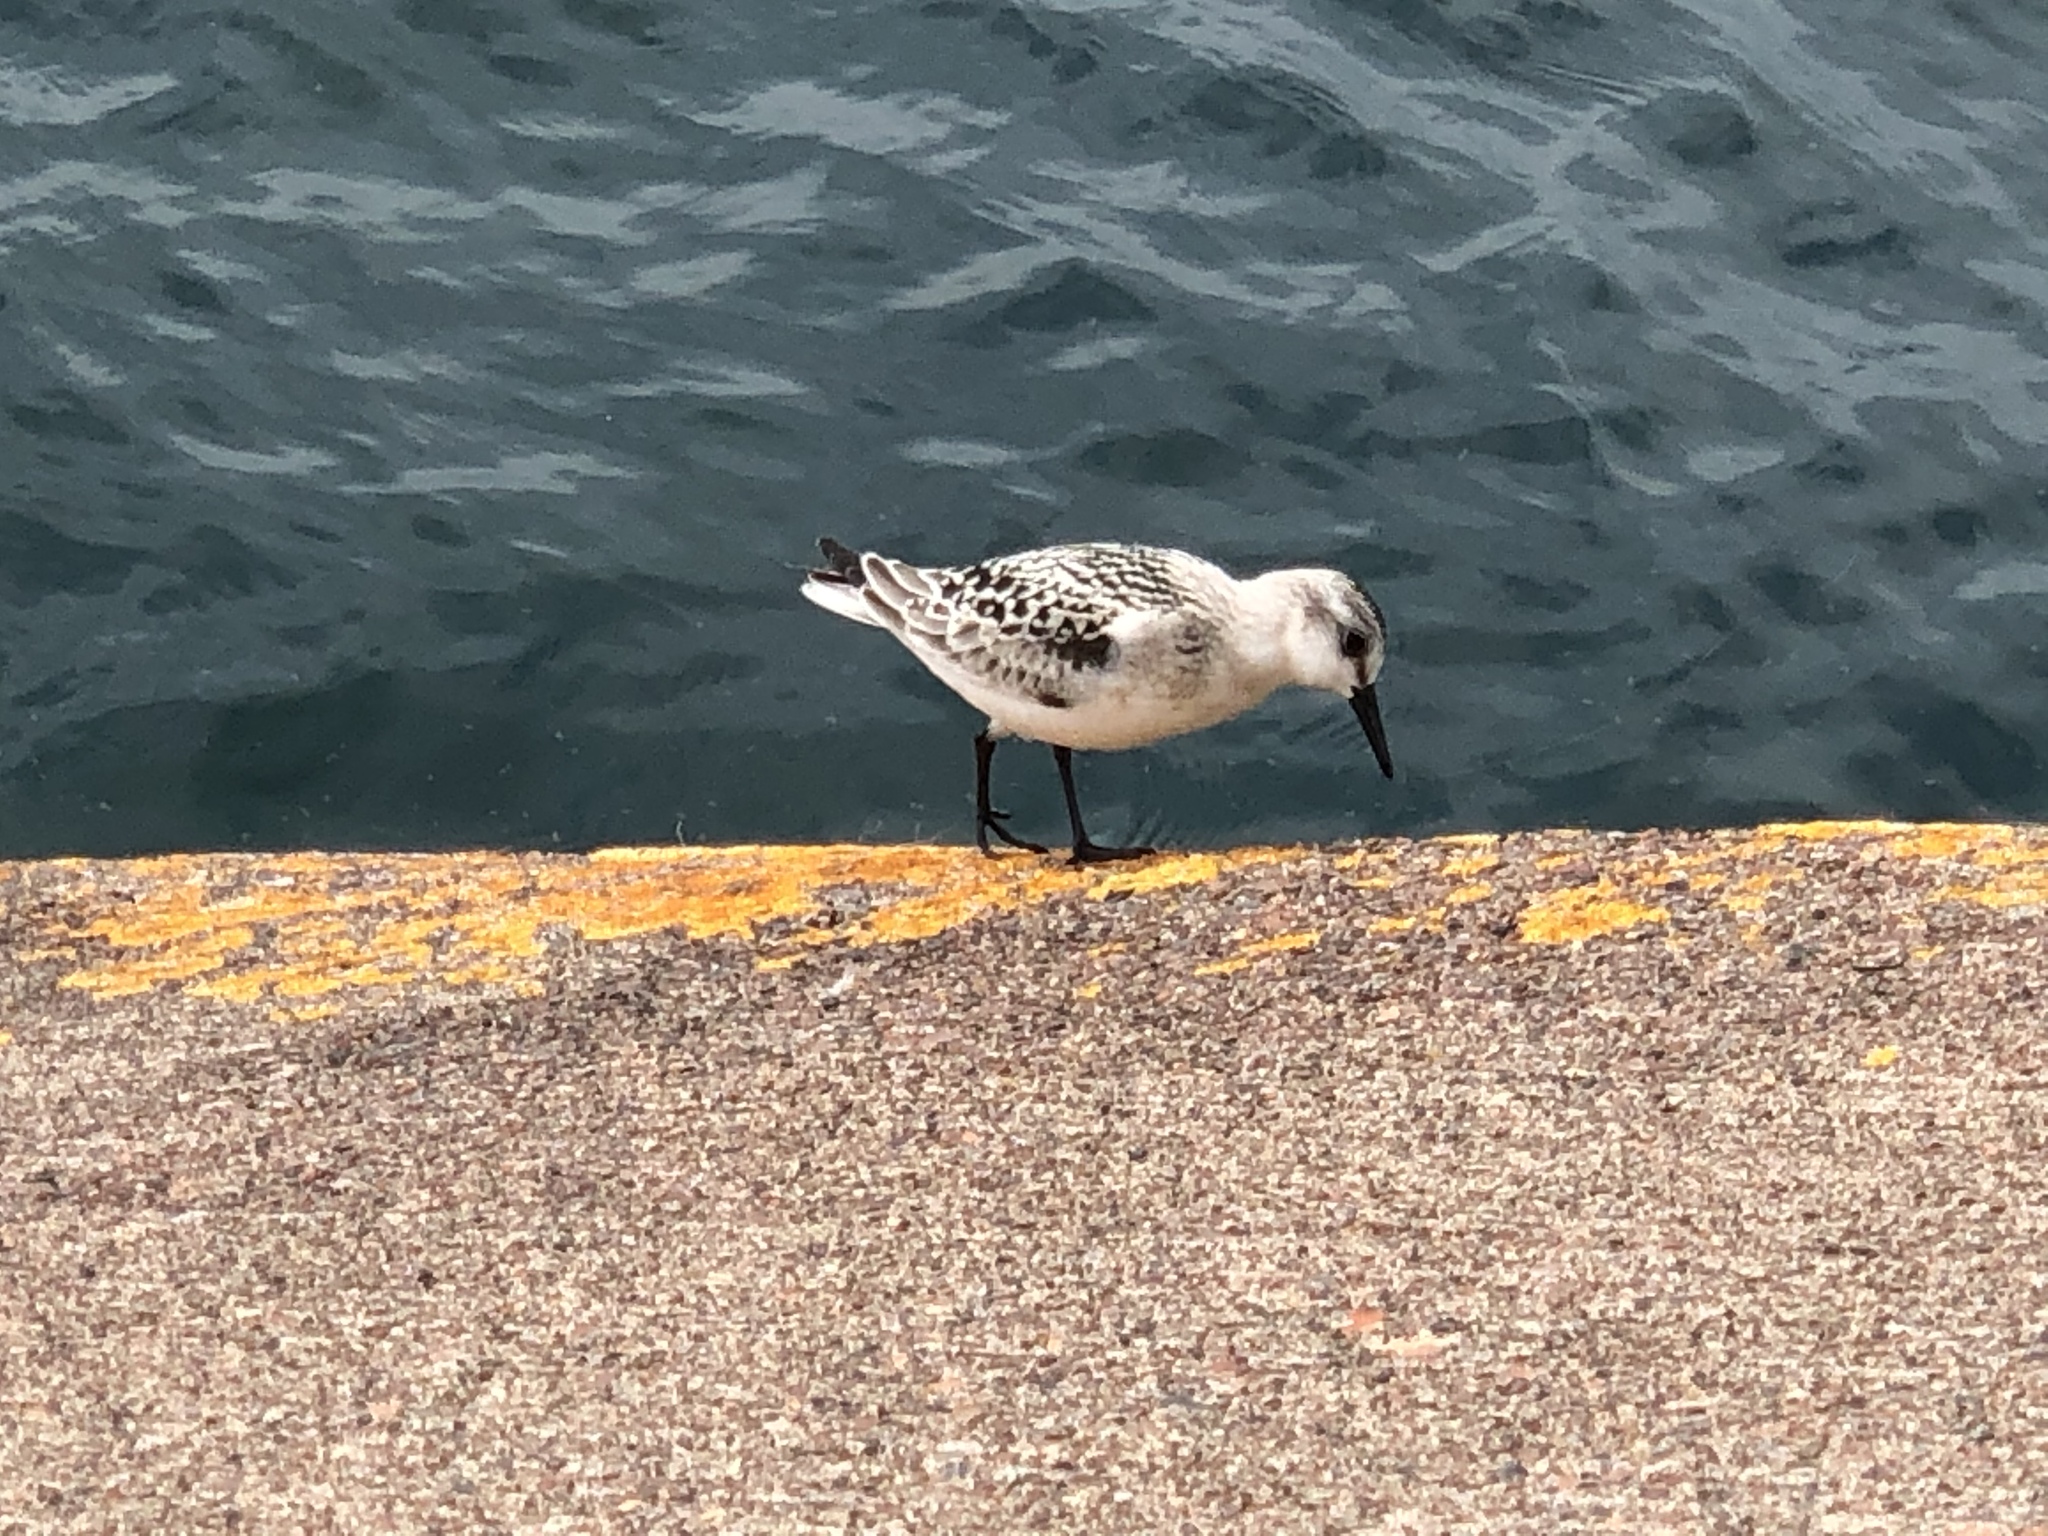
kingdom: Animalia
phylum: Chordata
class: Aves
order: Charadriiformes
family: Scolopacidae
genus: Calidris
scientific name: Calidris alba
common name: Sanderling
